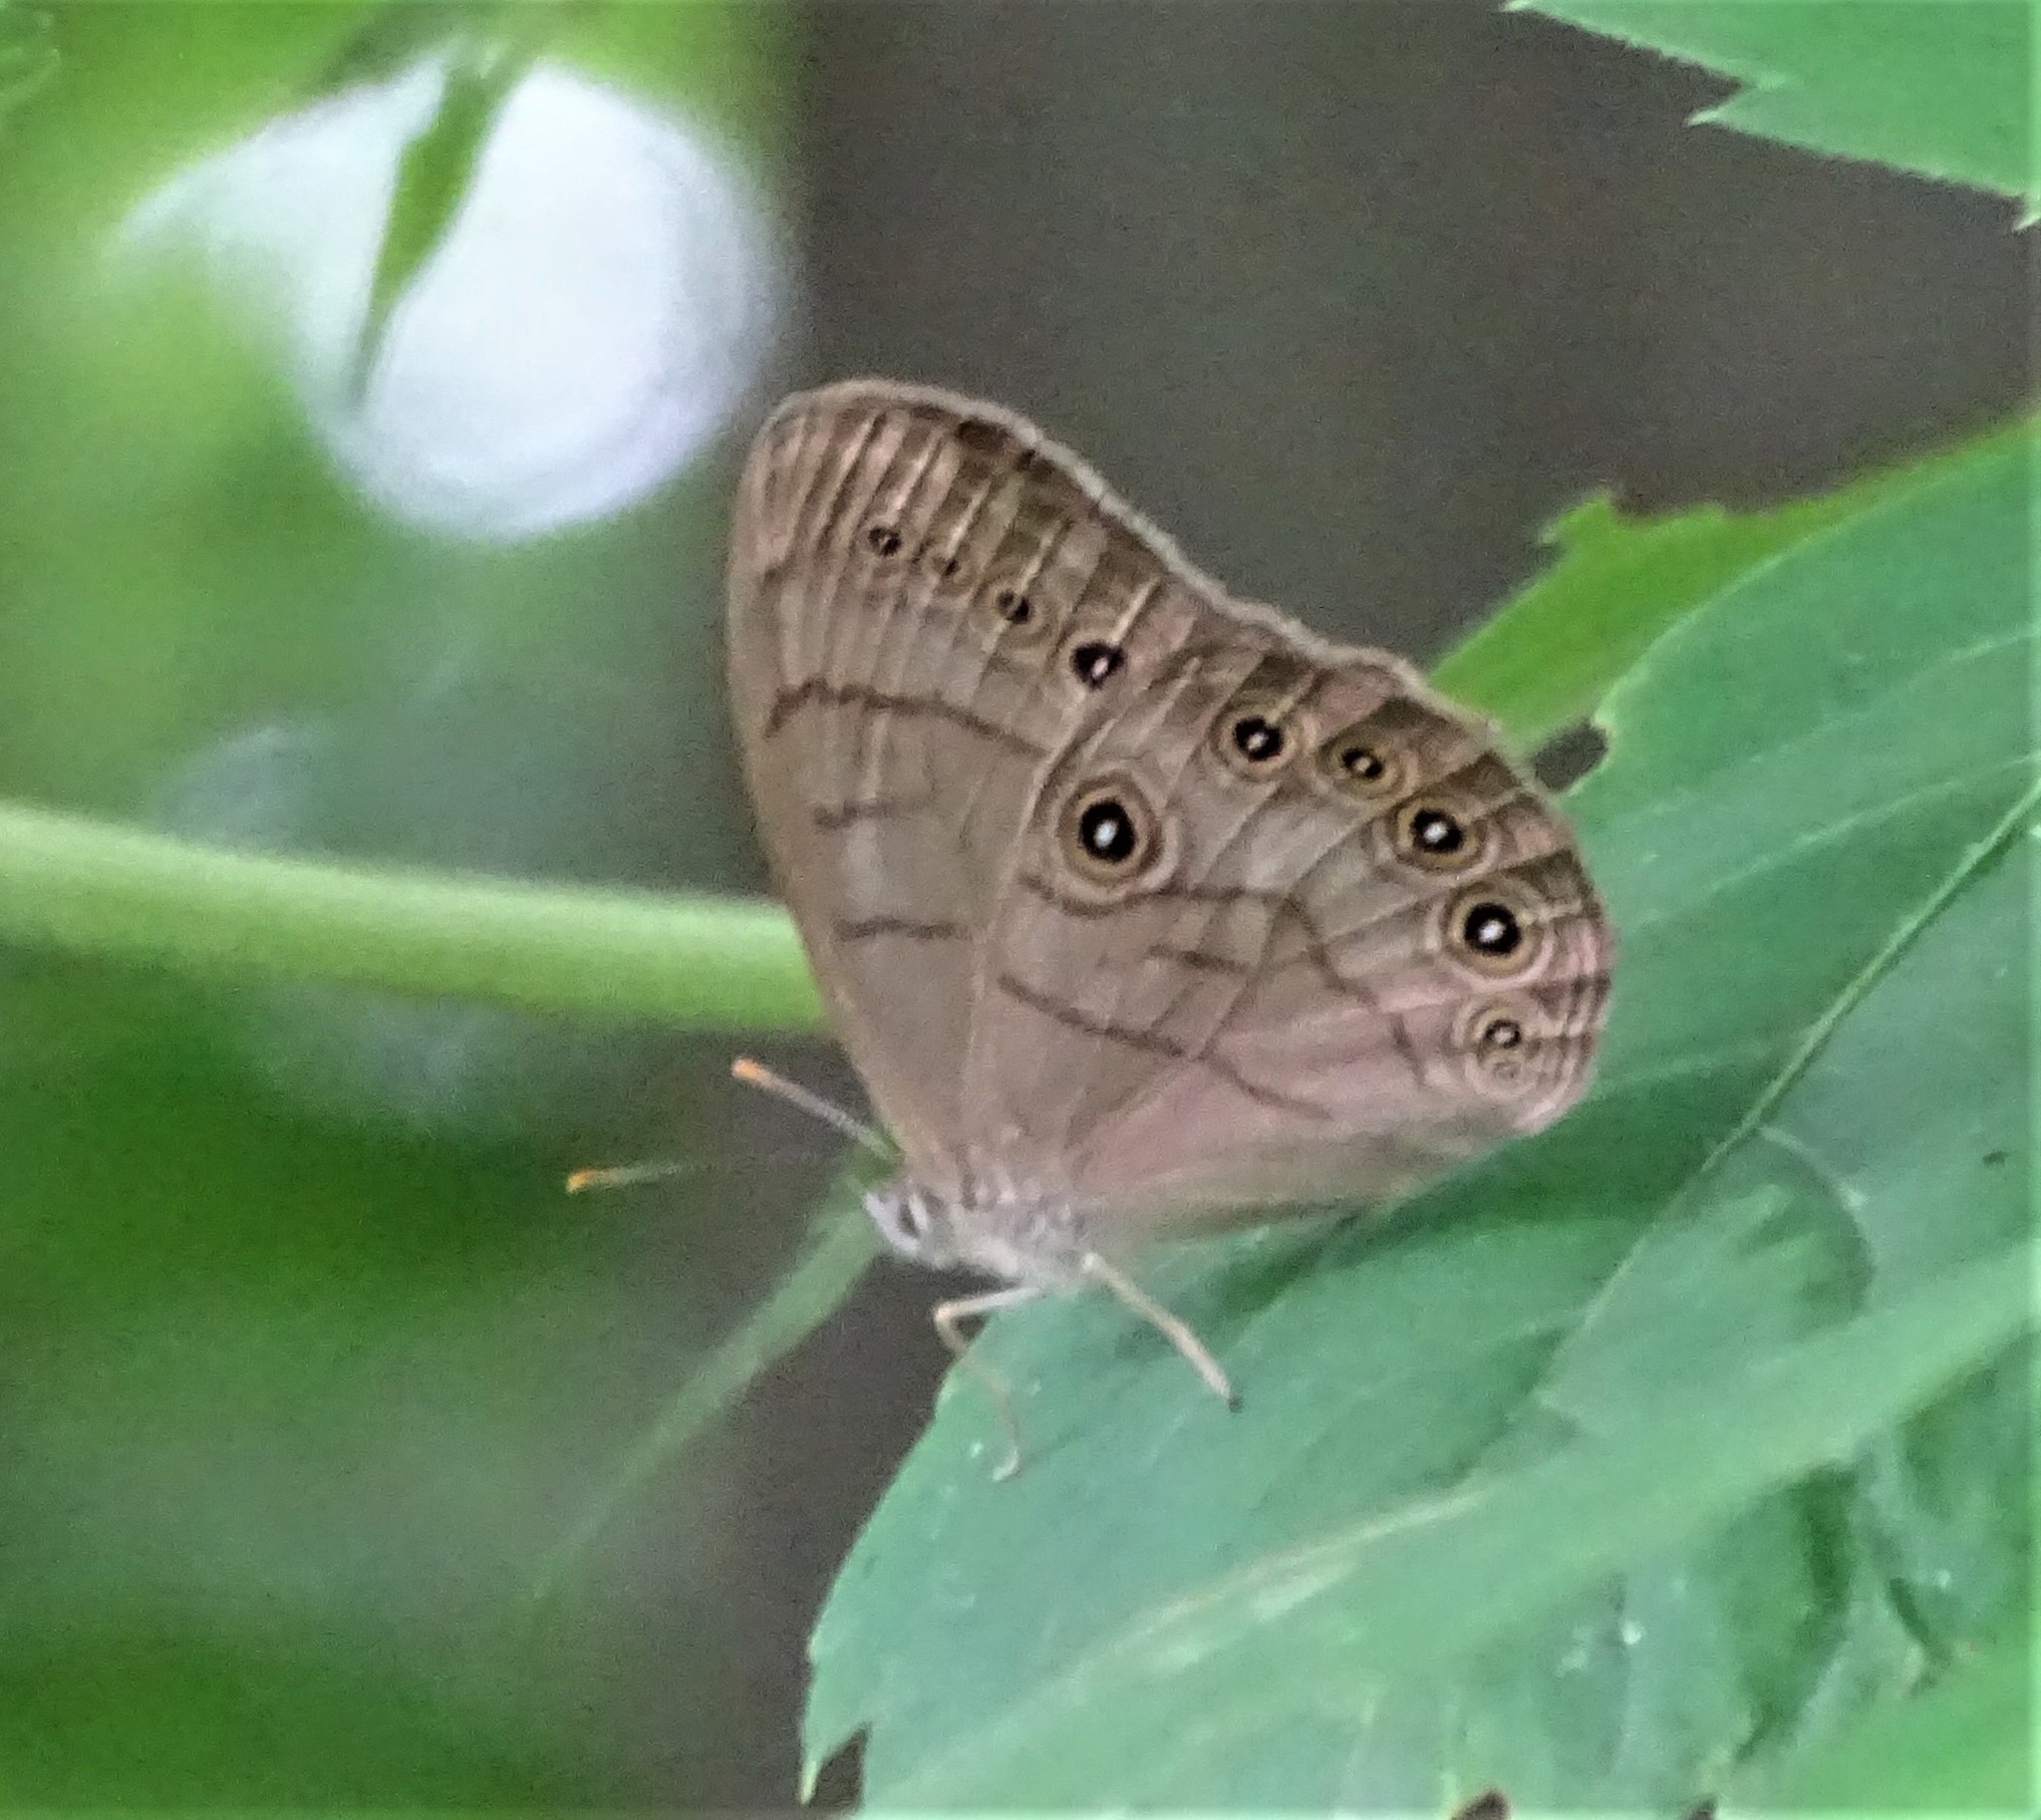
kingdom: Animalia
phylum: Arthropoda
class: Insecta
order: Lepidoptera
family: Nymphalidae
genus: Lethe
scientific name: Lethe eurydice
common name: Eyed brown
